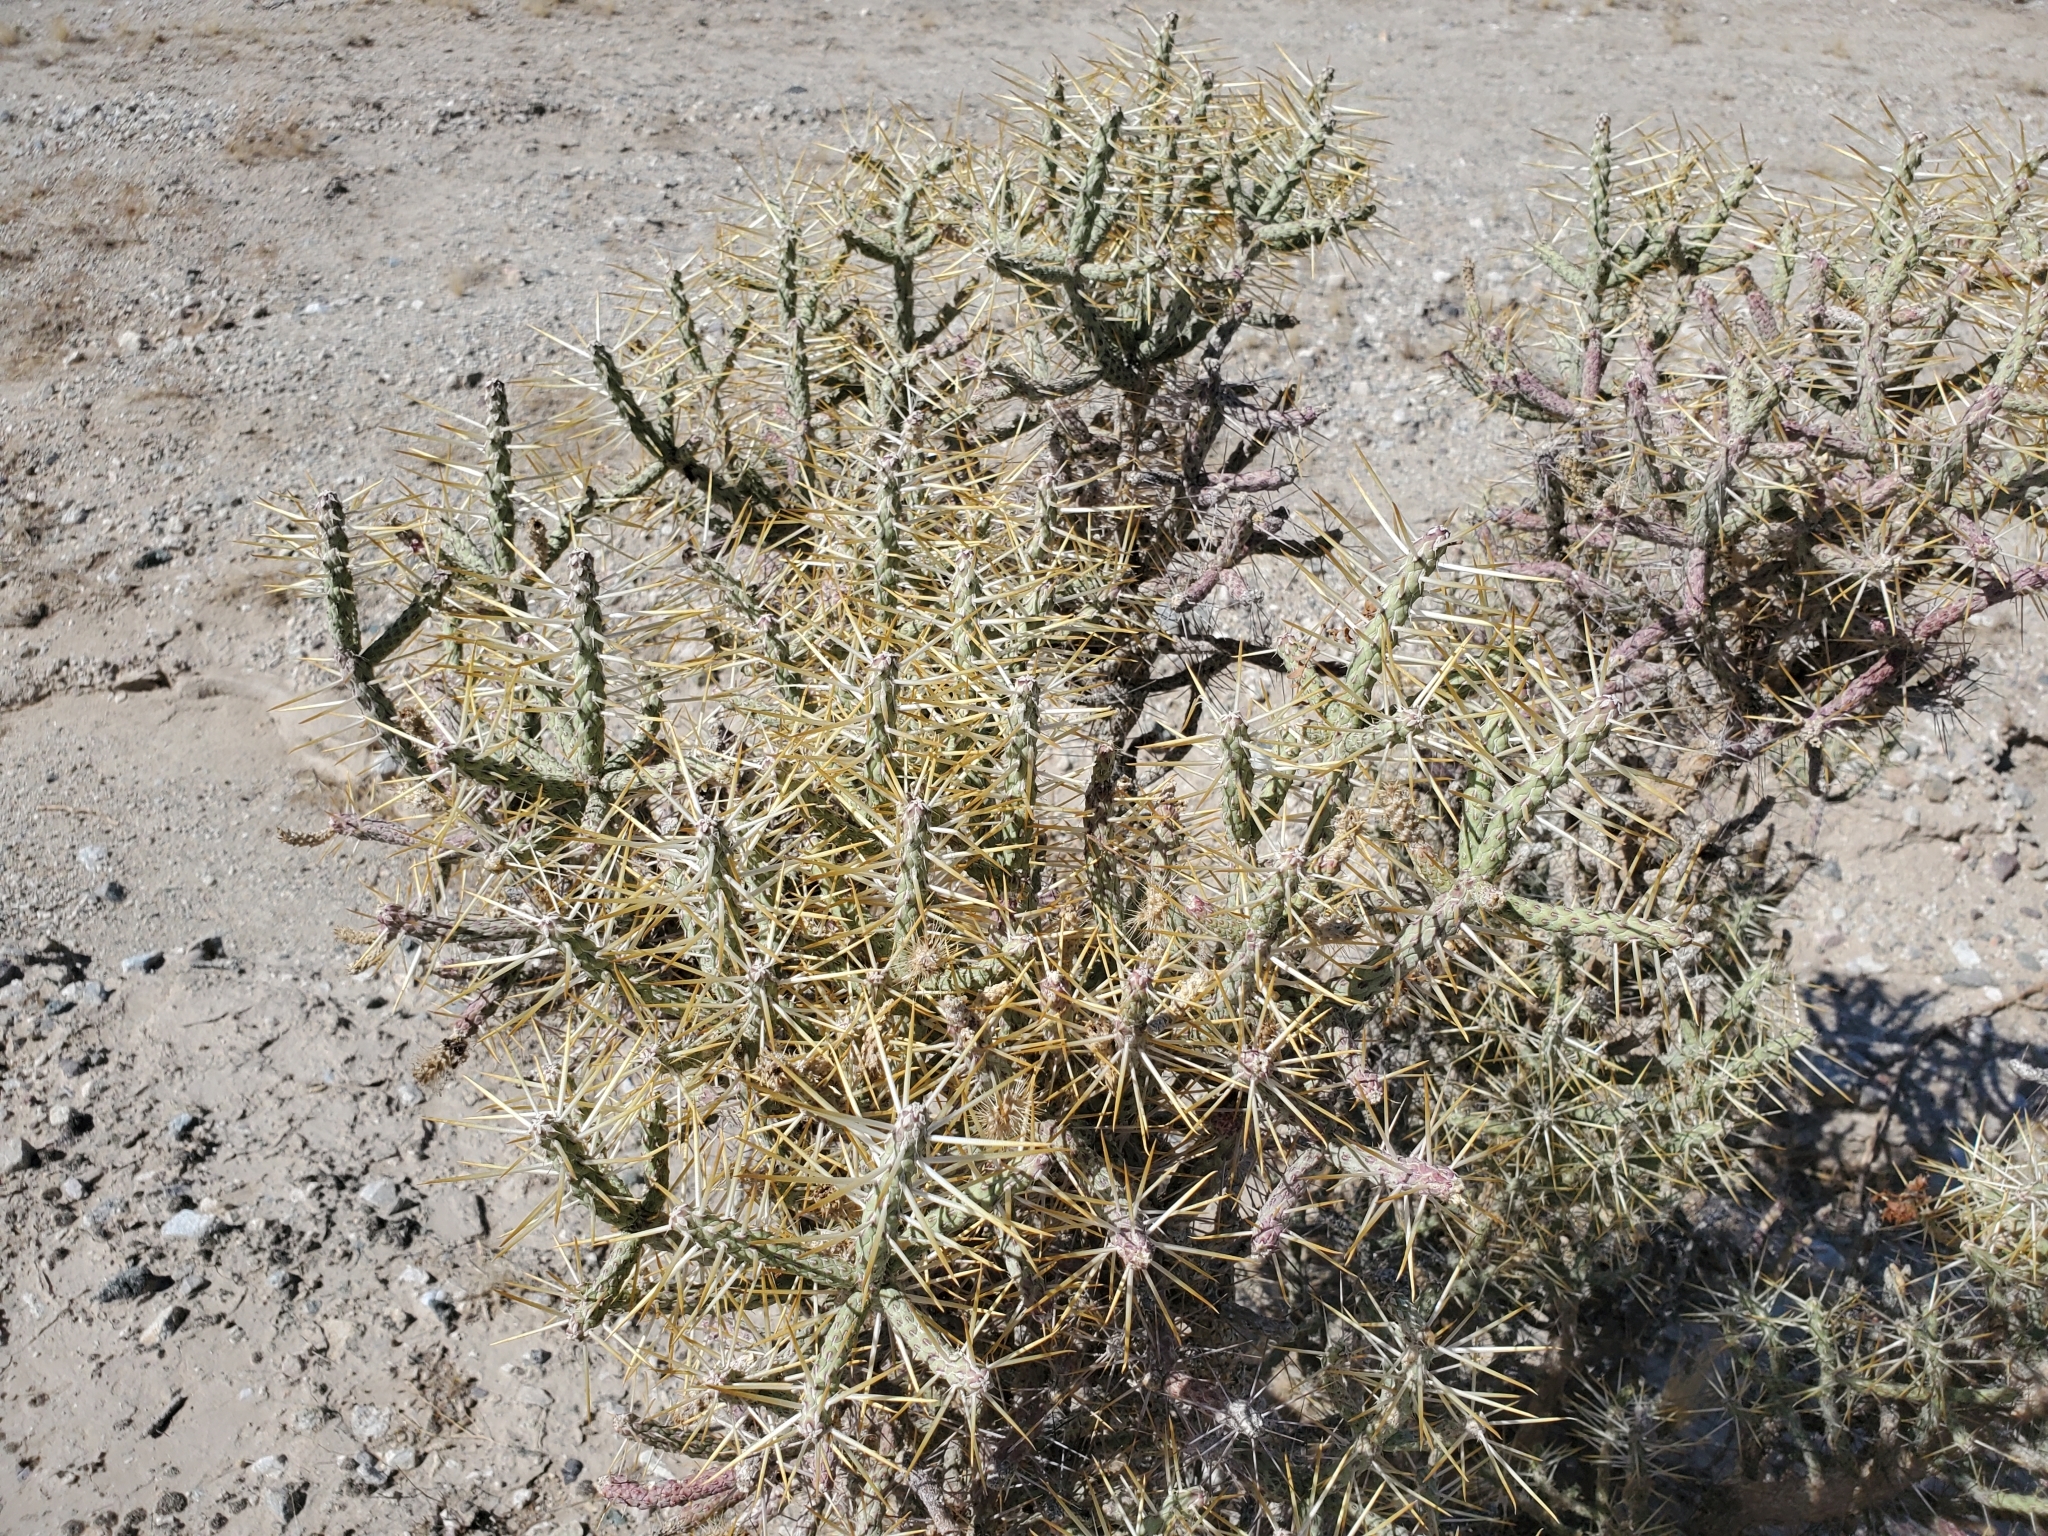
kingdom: Plantae
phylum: Tracheophyta
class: Magnoliopsida
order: Caryophyllales
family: Cactaceae
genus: Cylindropuntia
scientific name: Cylindropuntia ramosissima
